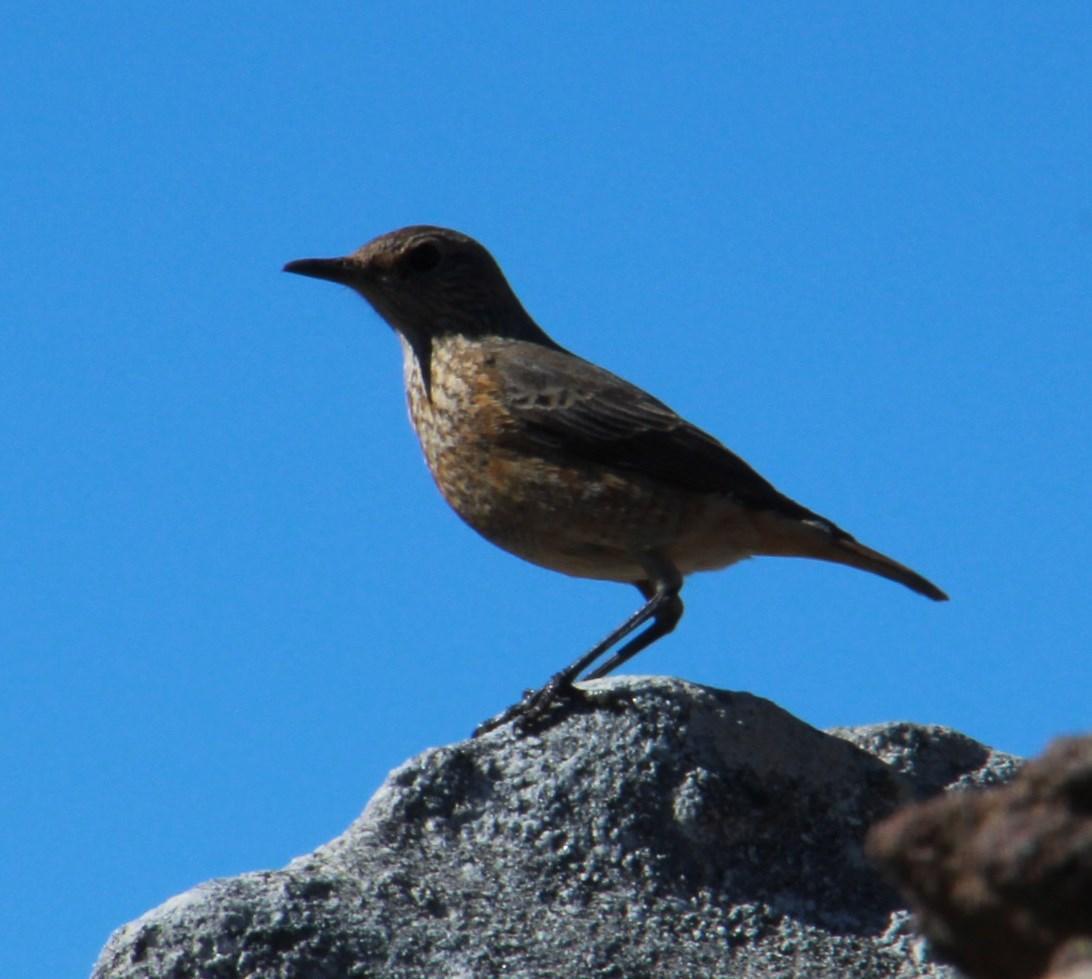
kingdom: Animalia
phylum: Chordata
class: Aves
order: Passeriformes
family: Muscicapidae
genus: Monticola
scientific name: Monticola explorator
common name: Sentinel rock thrush
